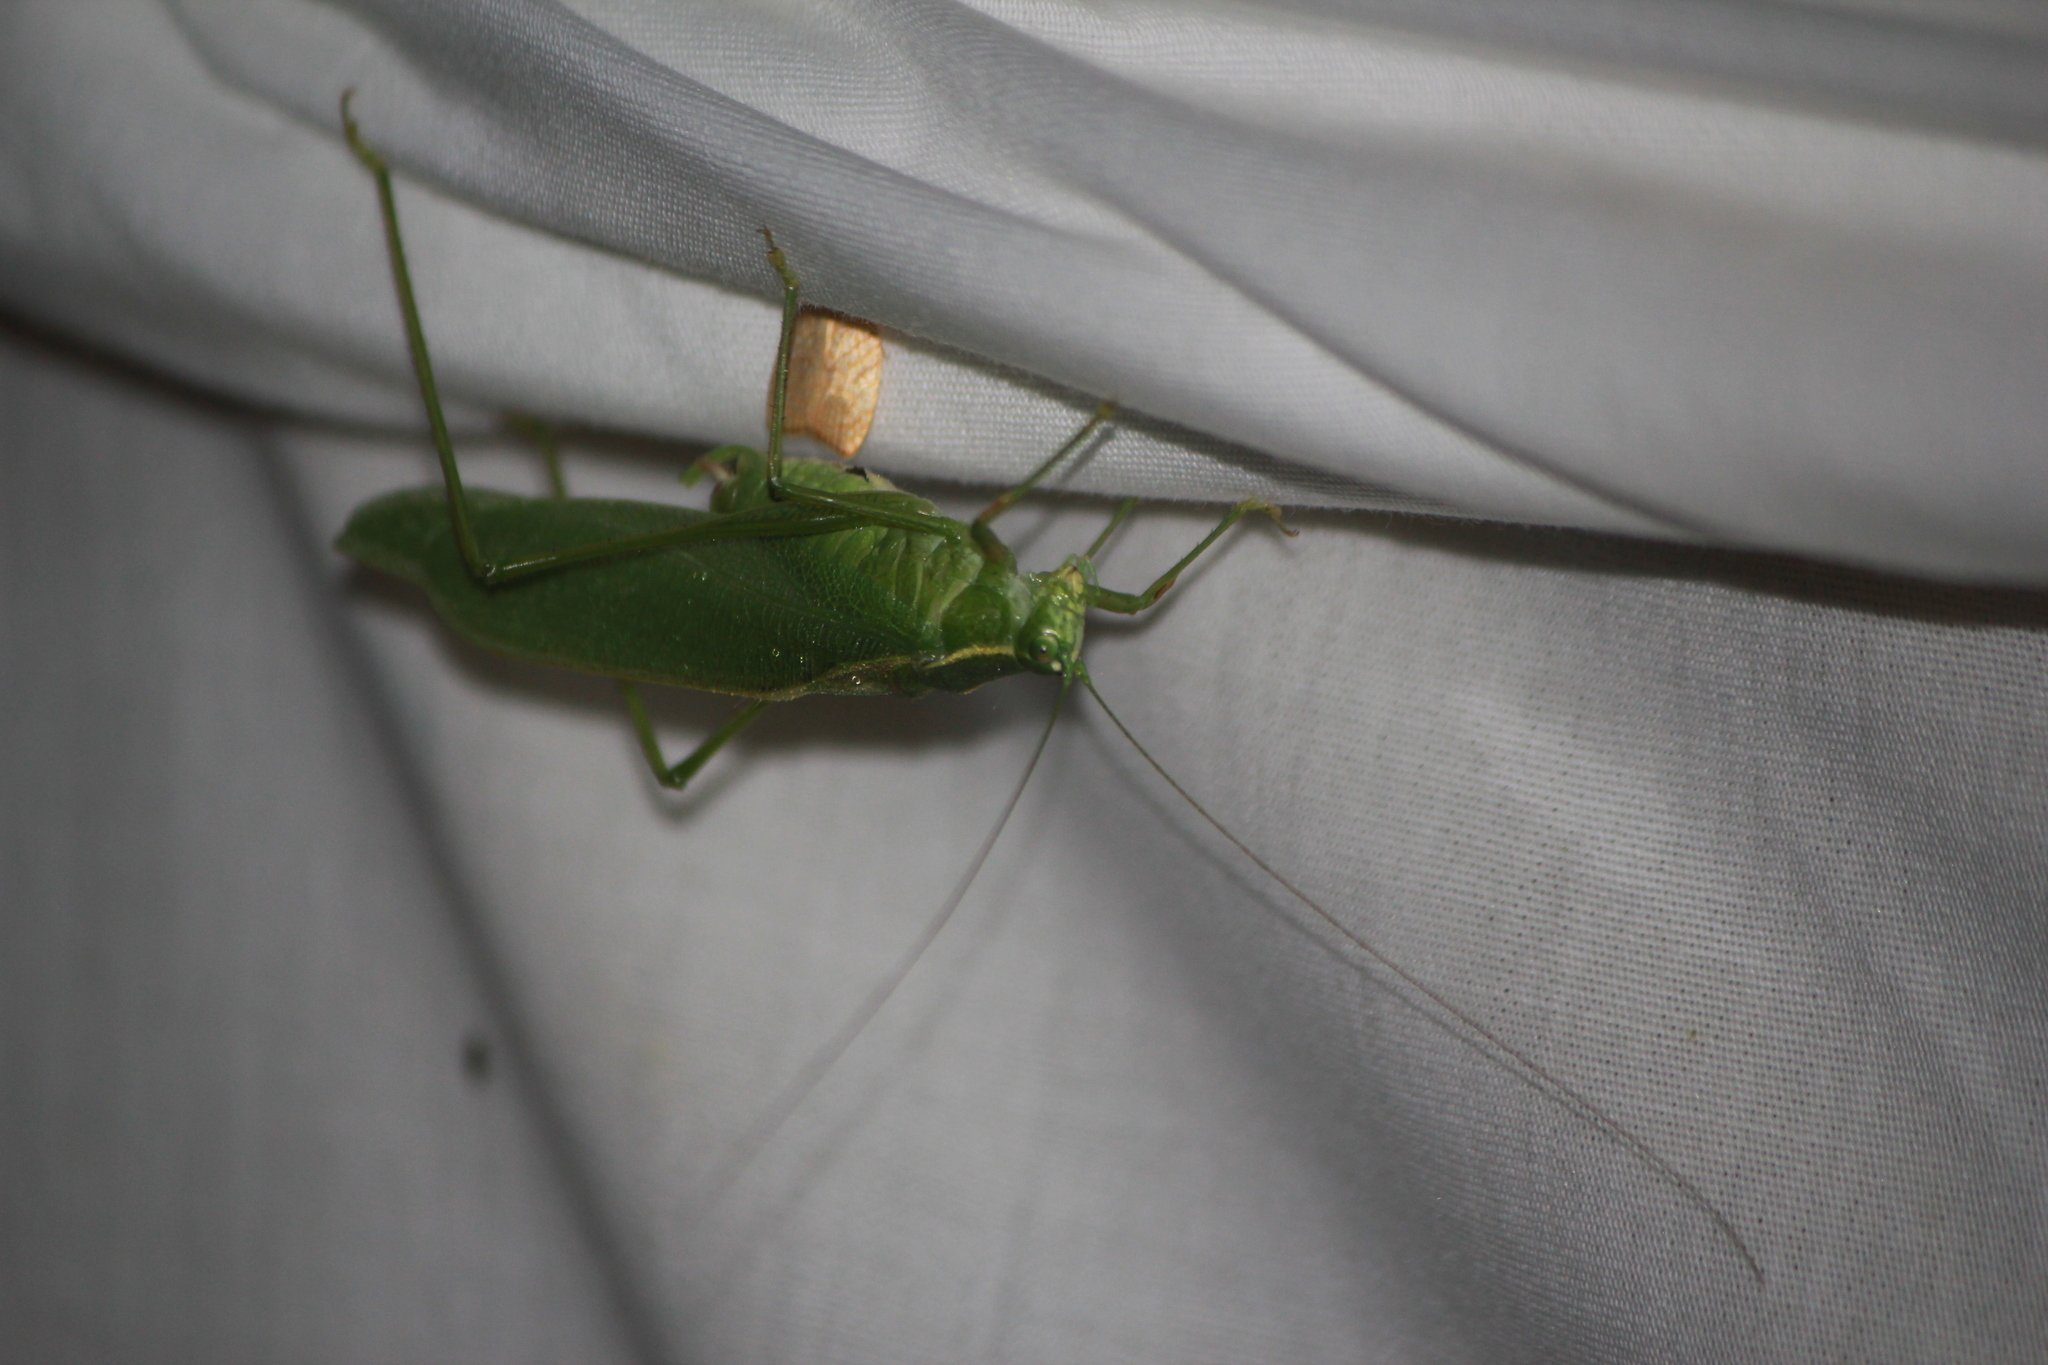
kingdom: Animalia
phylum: Arthropoda
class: Insecta
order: Orthoptera
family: Tettigoniidae
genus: Scudderia
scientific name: Scudderia septentrionalis
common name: Northern bush-katydid
